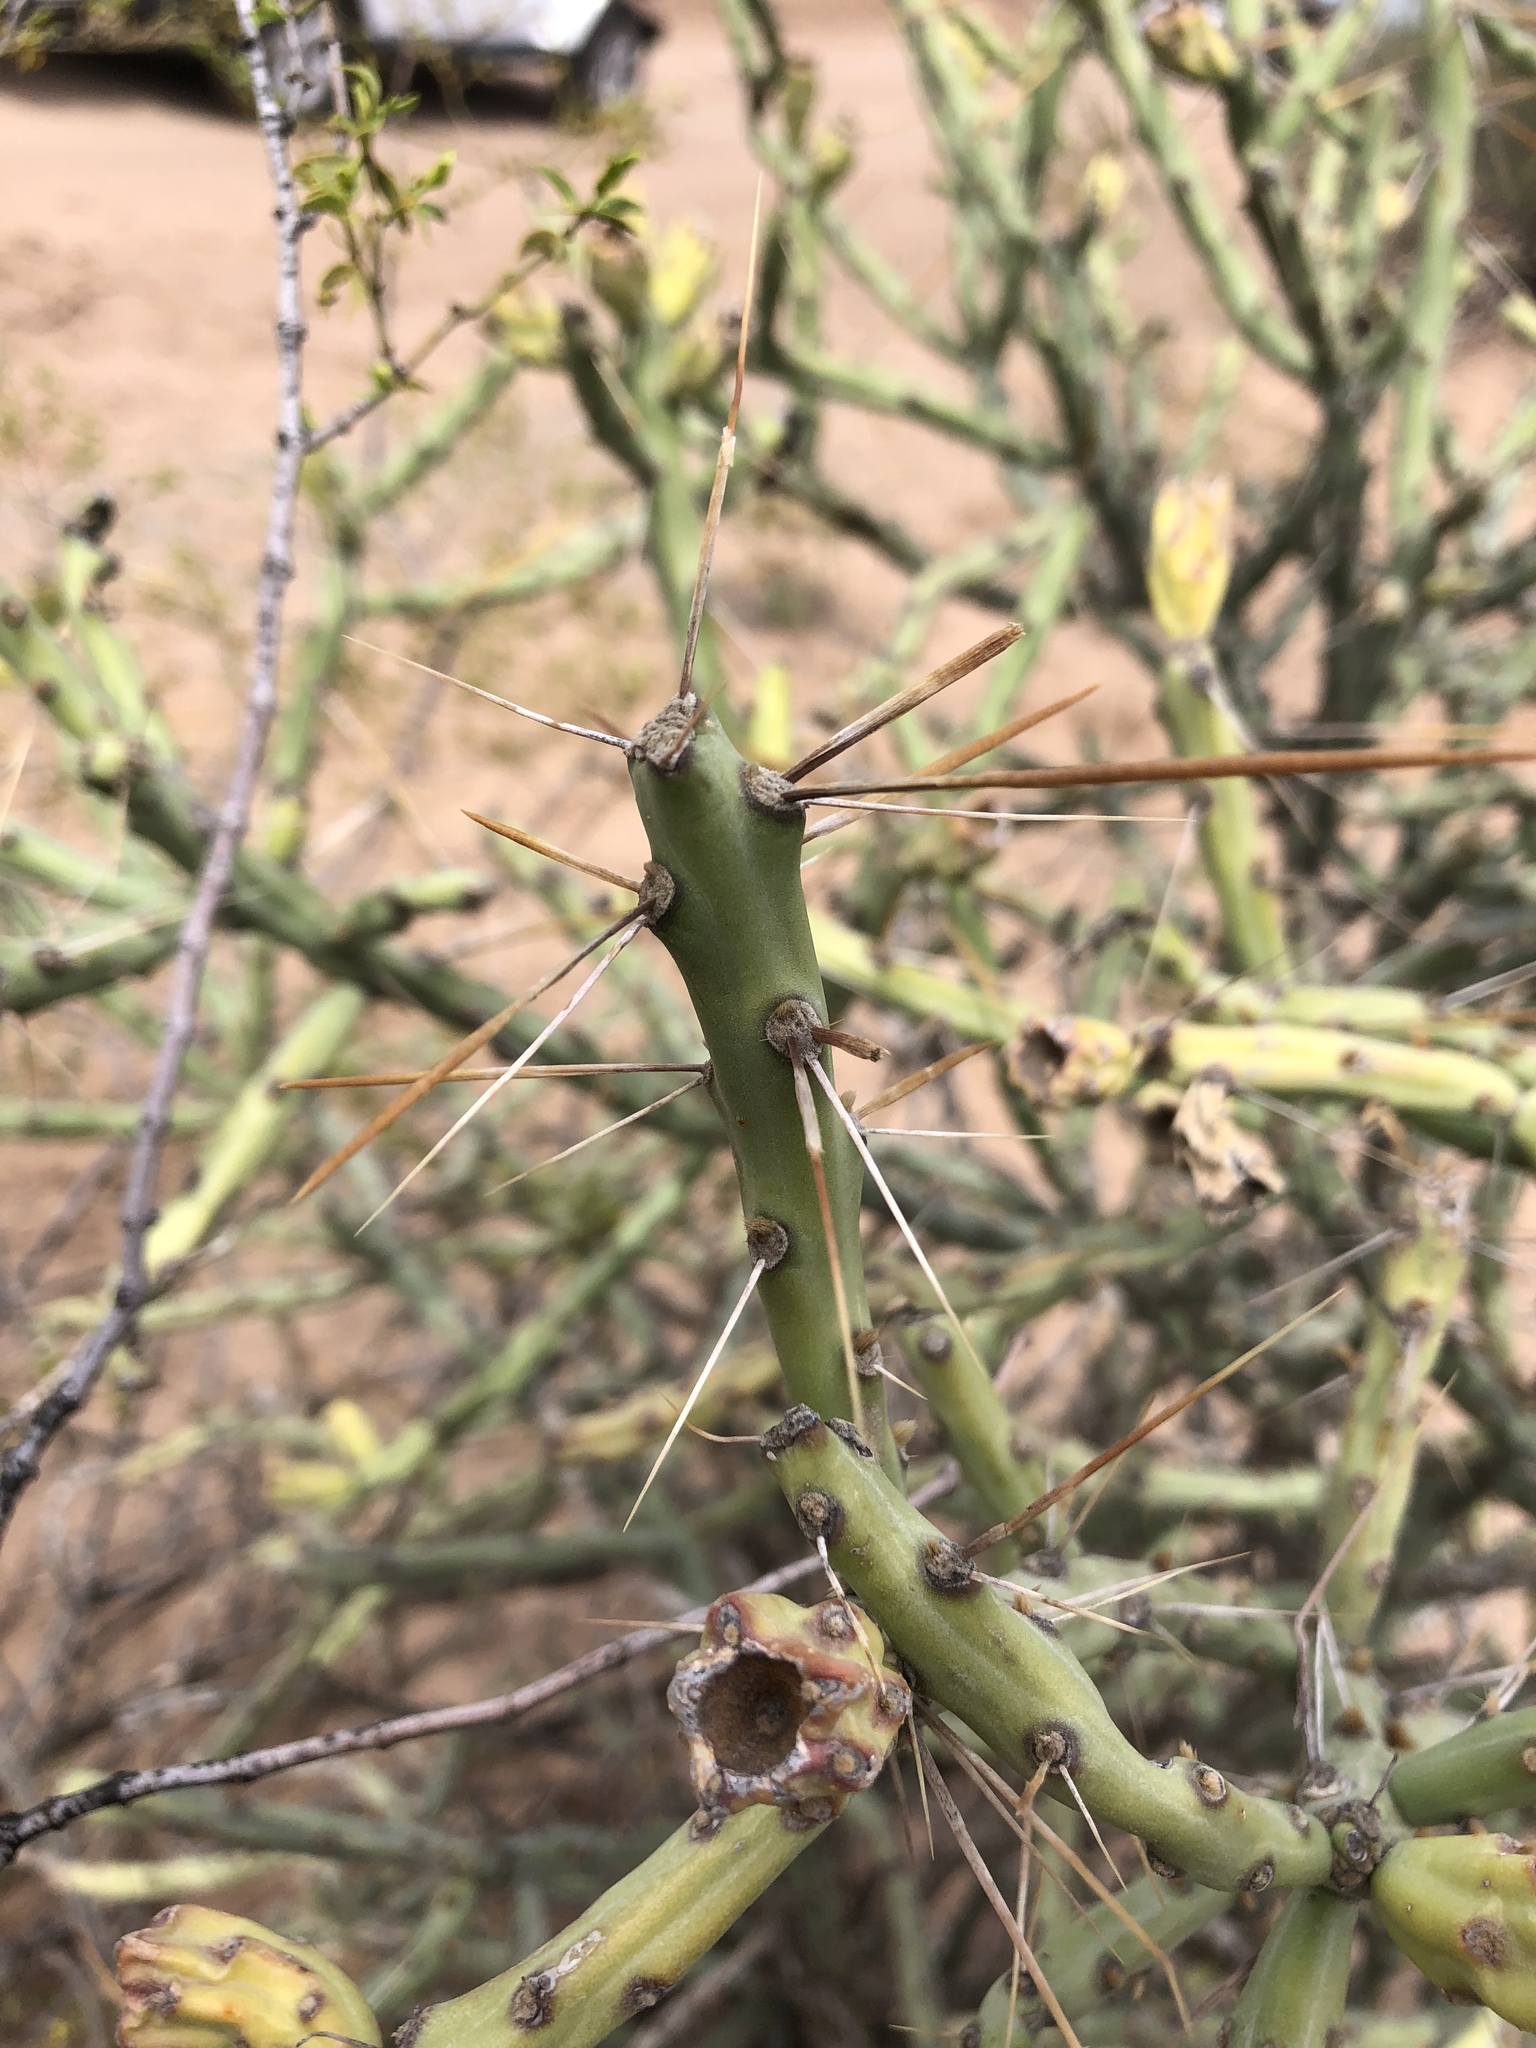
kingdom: Plantae
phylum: Tracheophyta
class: Magnoliopsida
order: Caryophyllales
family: Cactaceae
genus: Cylindropuntia
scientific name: Cylindropuntia kleiniae
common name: Klein's cholla
